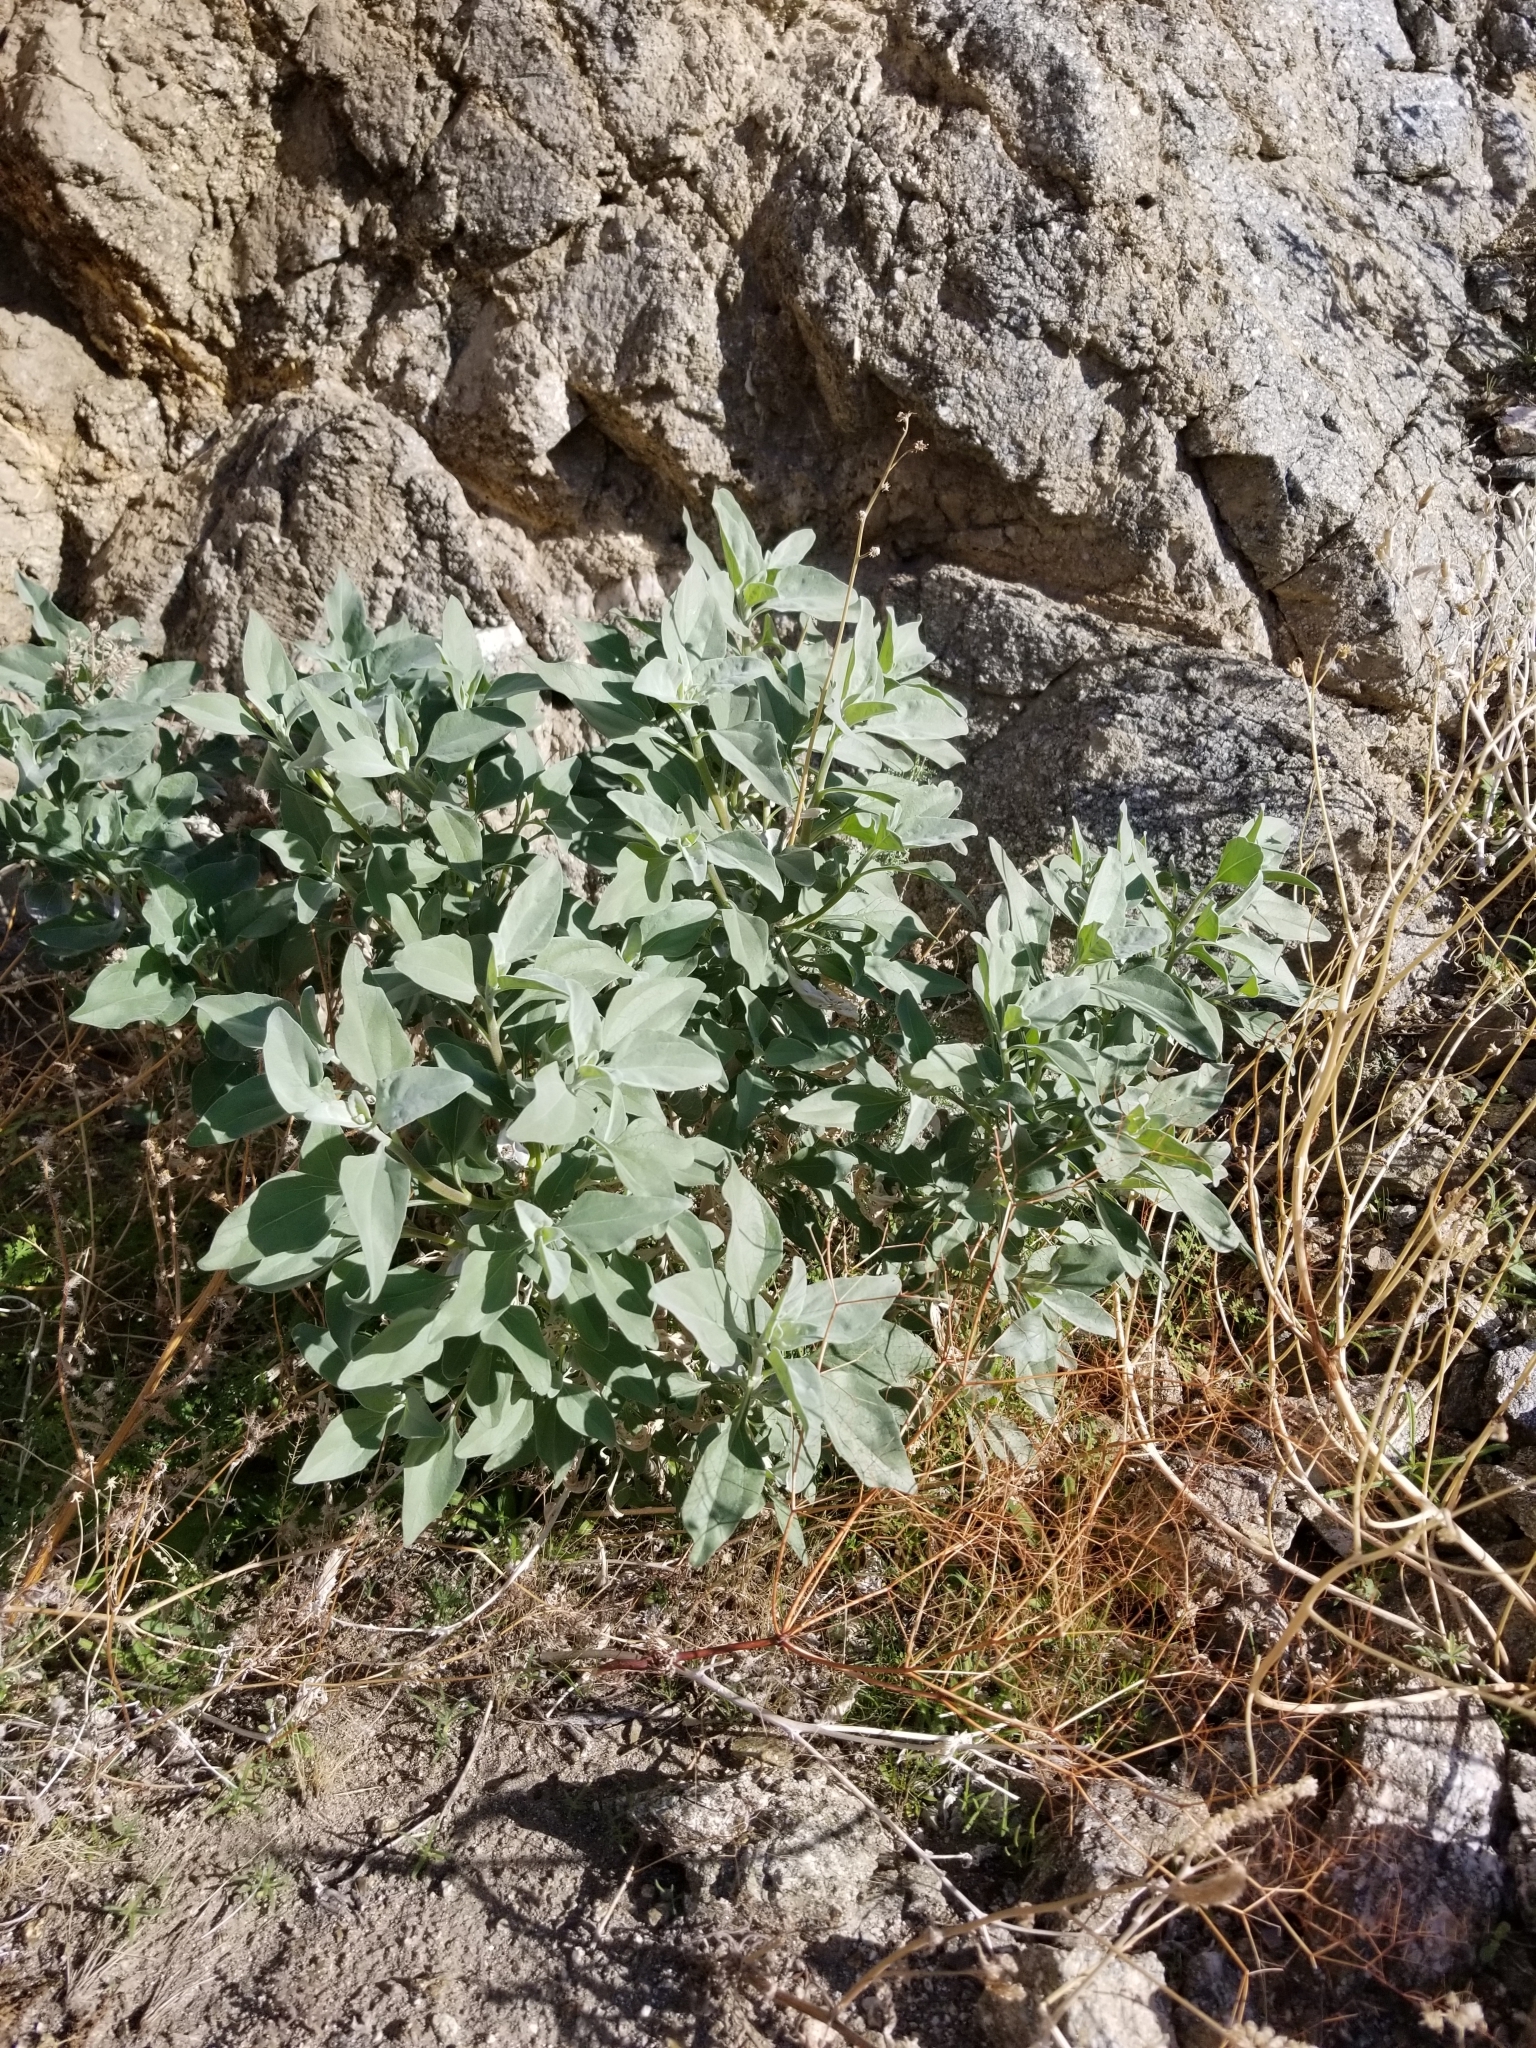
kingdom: Plantae
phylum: Tracheophyta
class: Magnoliopsida
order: Asterales
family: Asteraceae
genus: Encelia
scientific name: Encelia farinosa
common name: Brittlebush
